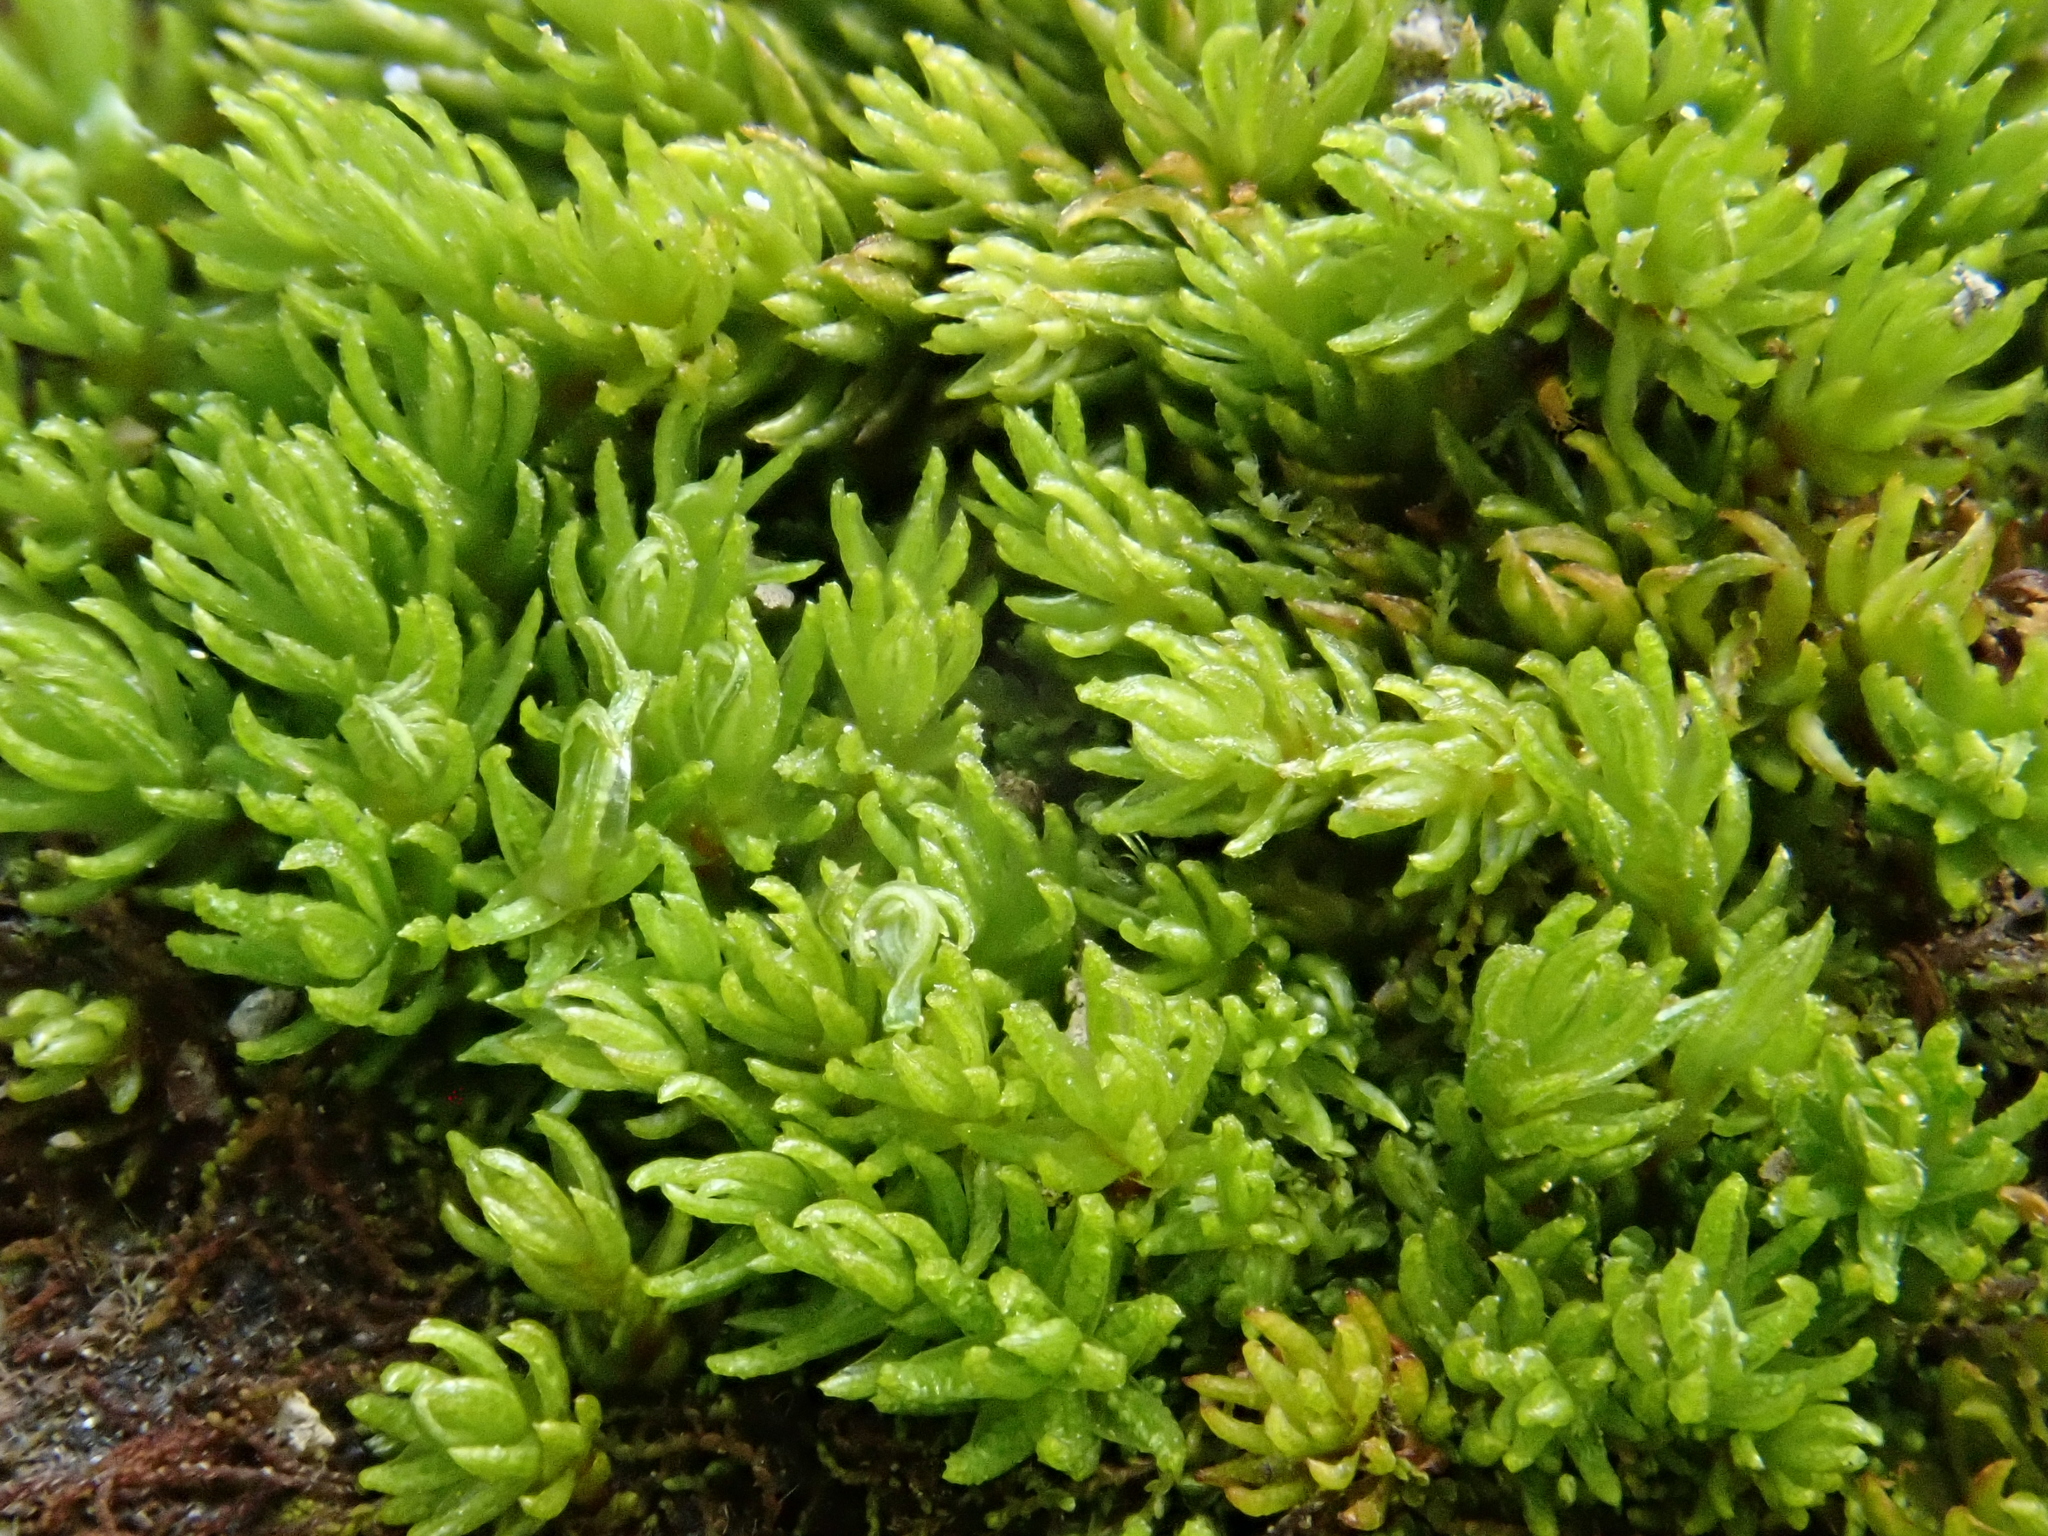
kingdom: Plantae
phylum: Bryophyta
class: Polytrichopsida
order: Polytrichales
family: Polytrichaceae
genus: Oligotrichum
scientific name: Oligotrichum hercynicum
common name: Hercynian hair moss
